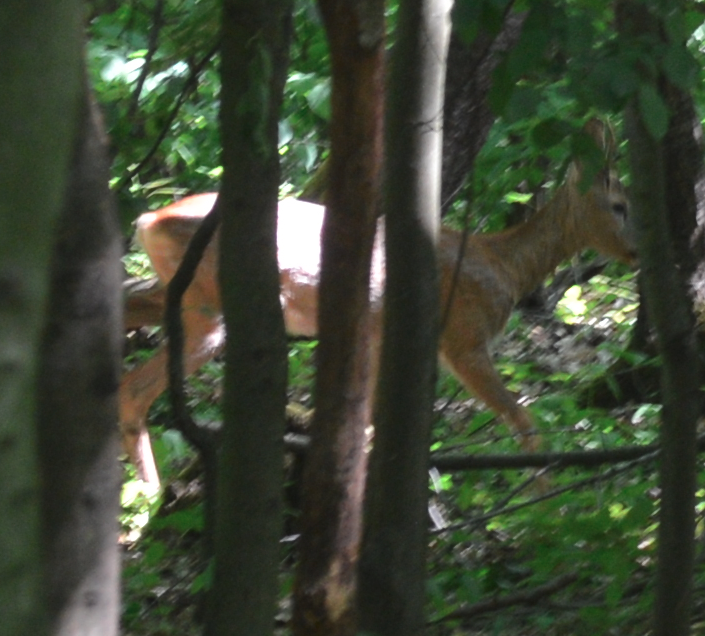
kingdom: Animalia
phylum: Chordata
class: Mammalia
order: Artiodactyla
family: Cervidae
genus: Capreolus
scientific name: Capreolus capreolus
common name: Western roe deer
